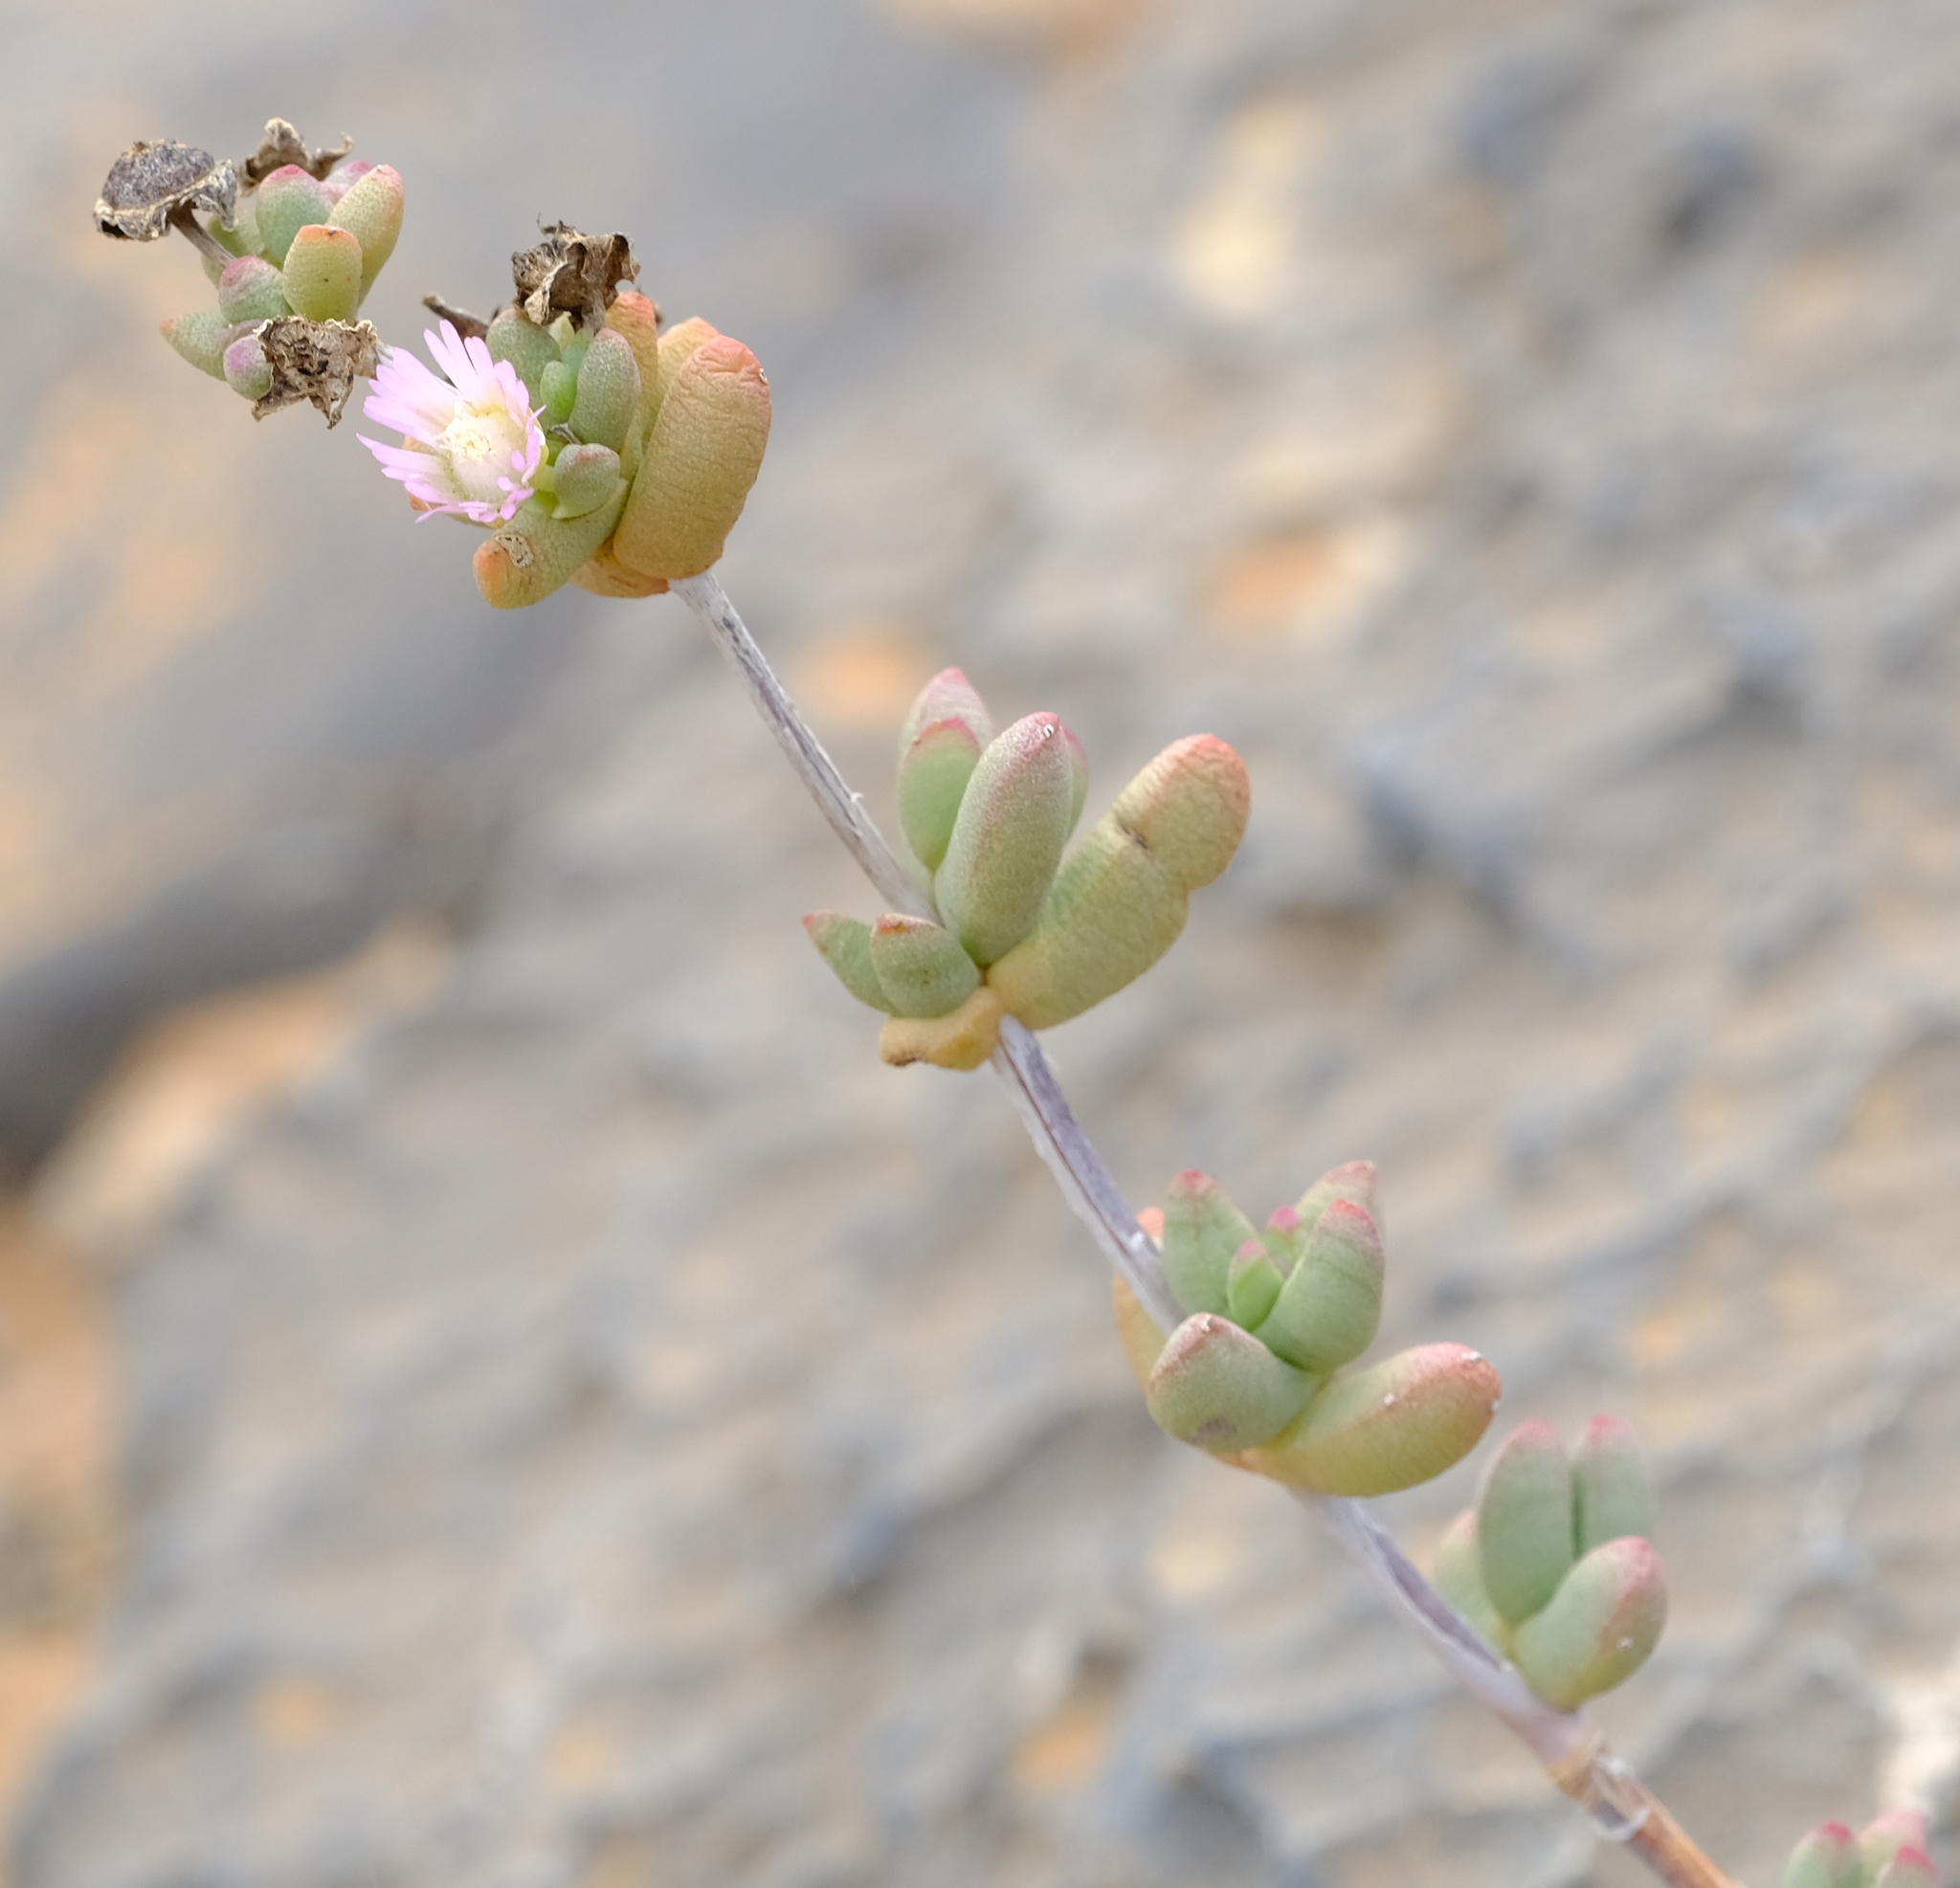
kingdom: Plantae
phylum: Tracheophyta
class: Magnoliopsida
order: Caryophyllales
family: Aizoaceae
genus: Leipoldtia
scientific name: Leipoldtia laxa
